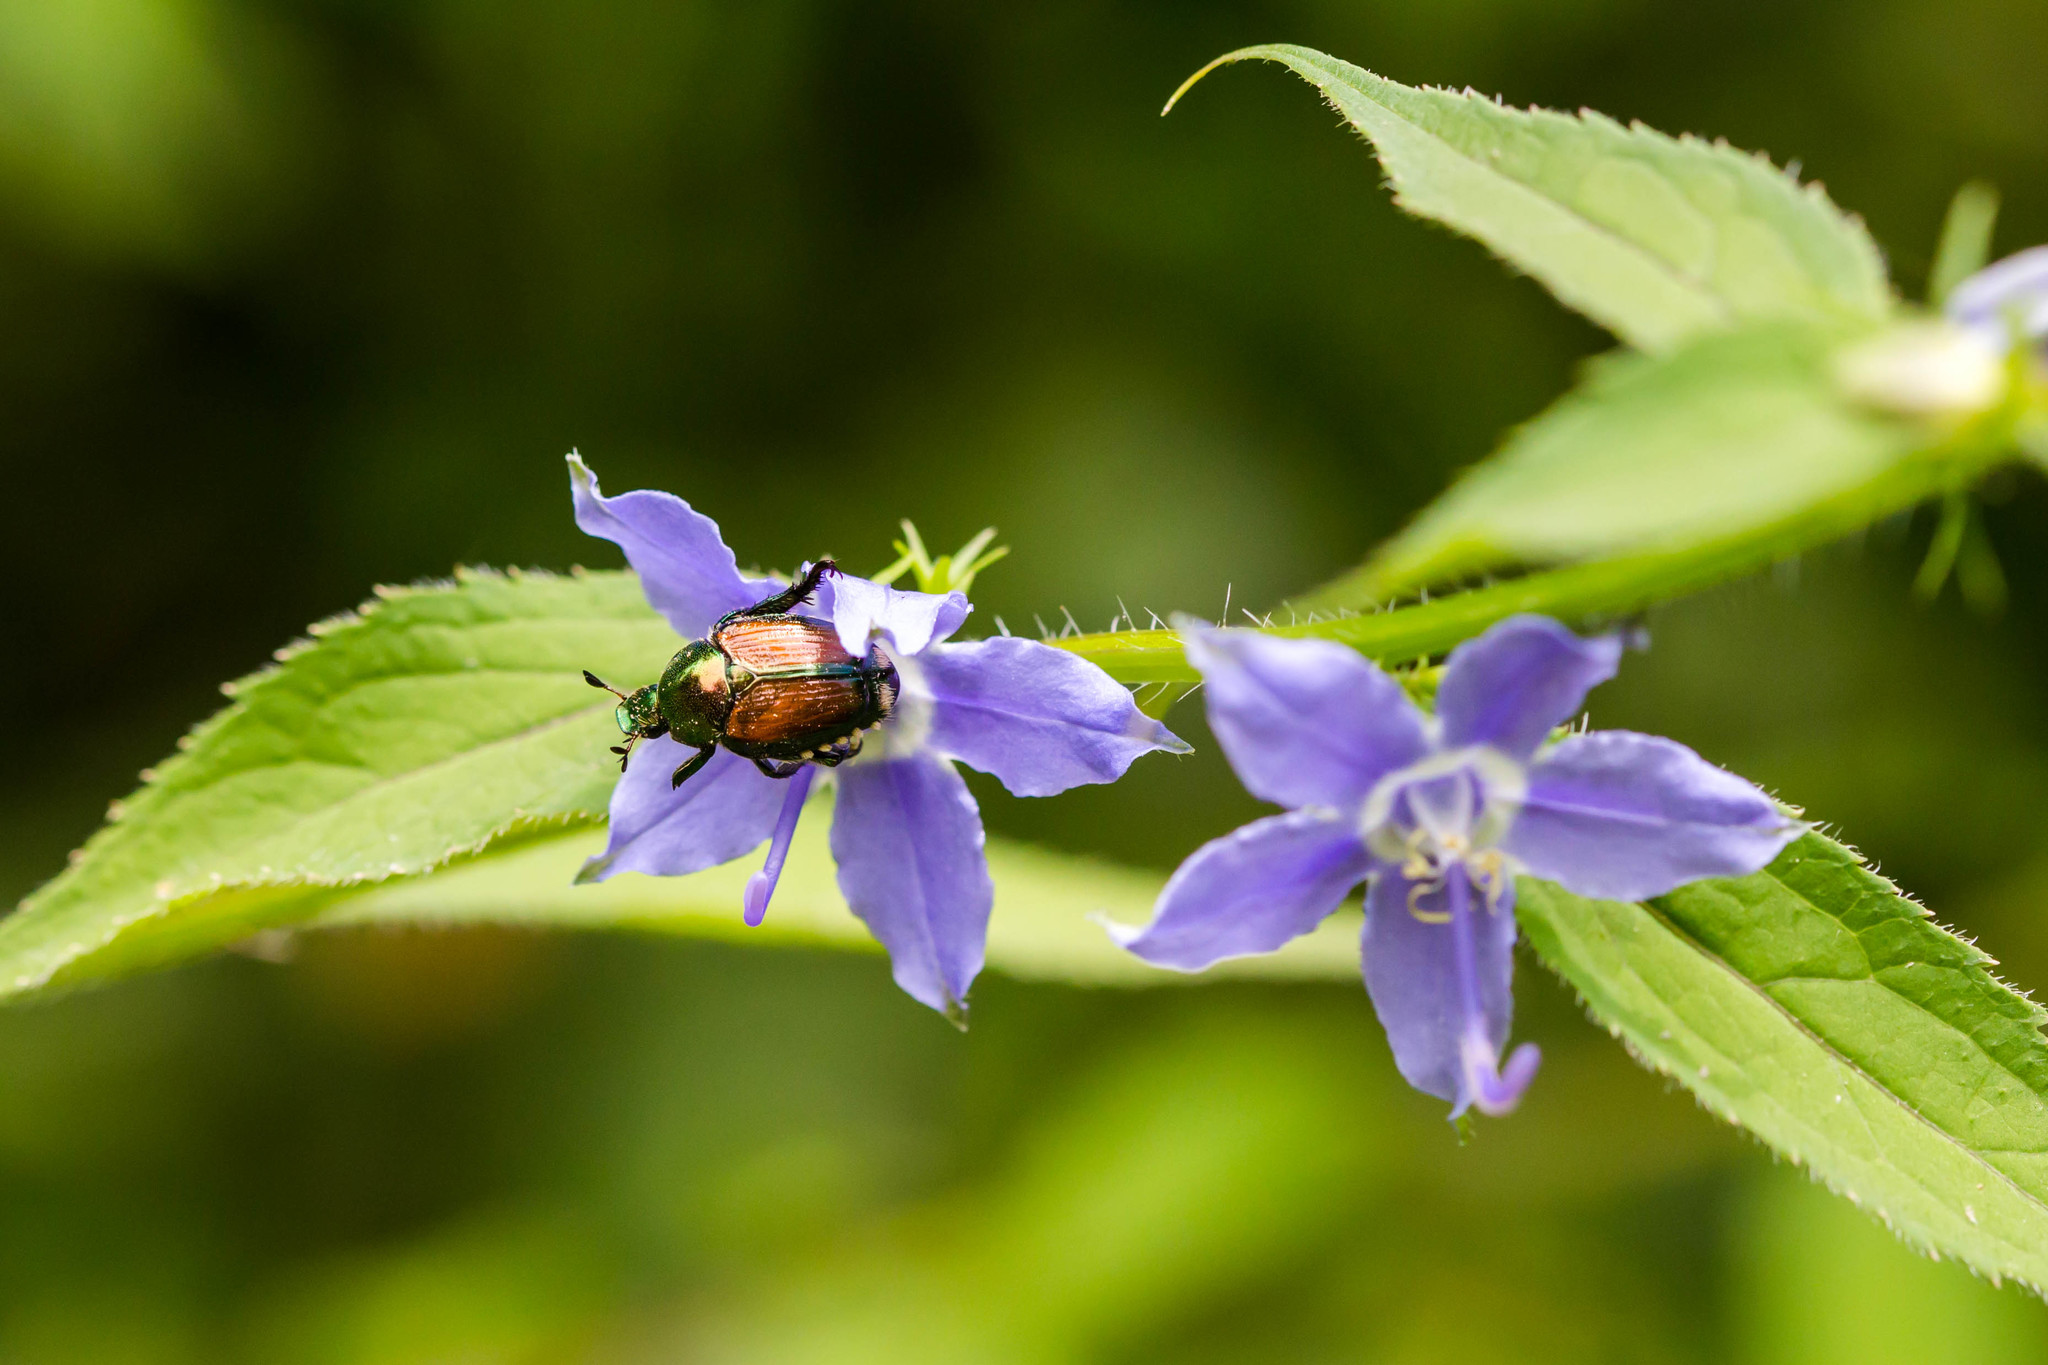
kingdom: Animalia
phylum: Arthropoda
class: Insecta
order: Coleoptera
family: Scarabaeidae
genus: Popillia
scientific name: Popillia japonica
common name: Japanese beetle
